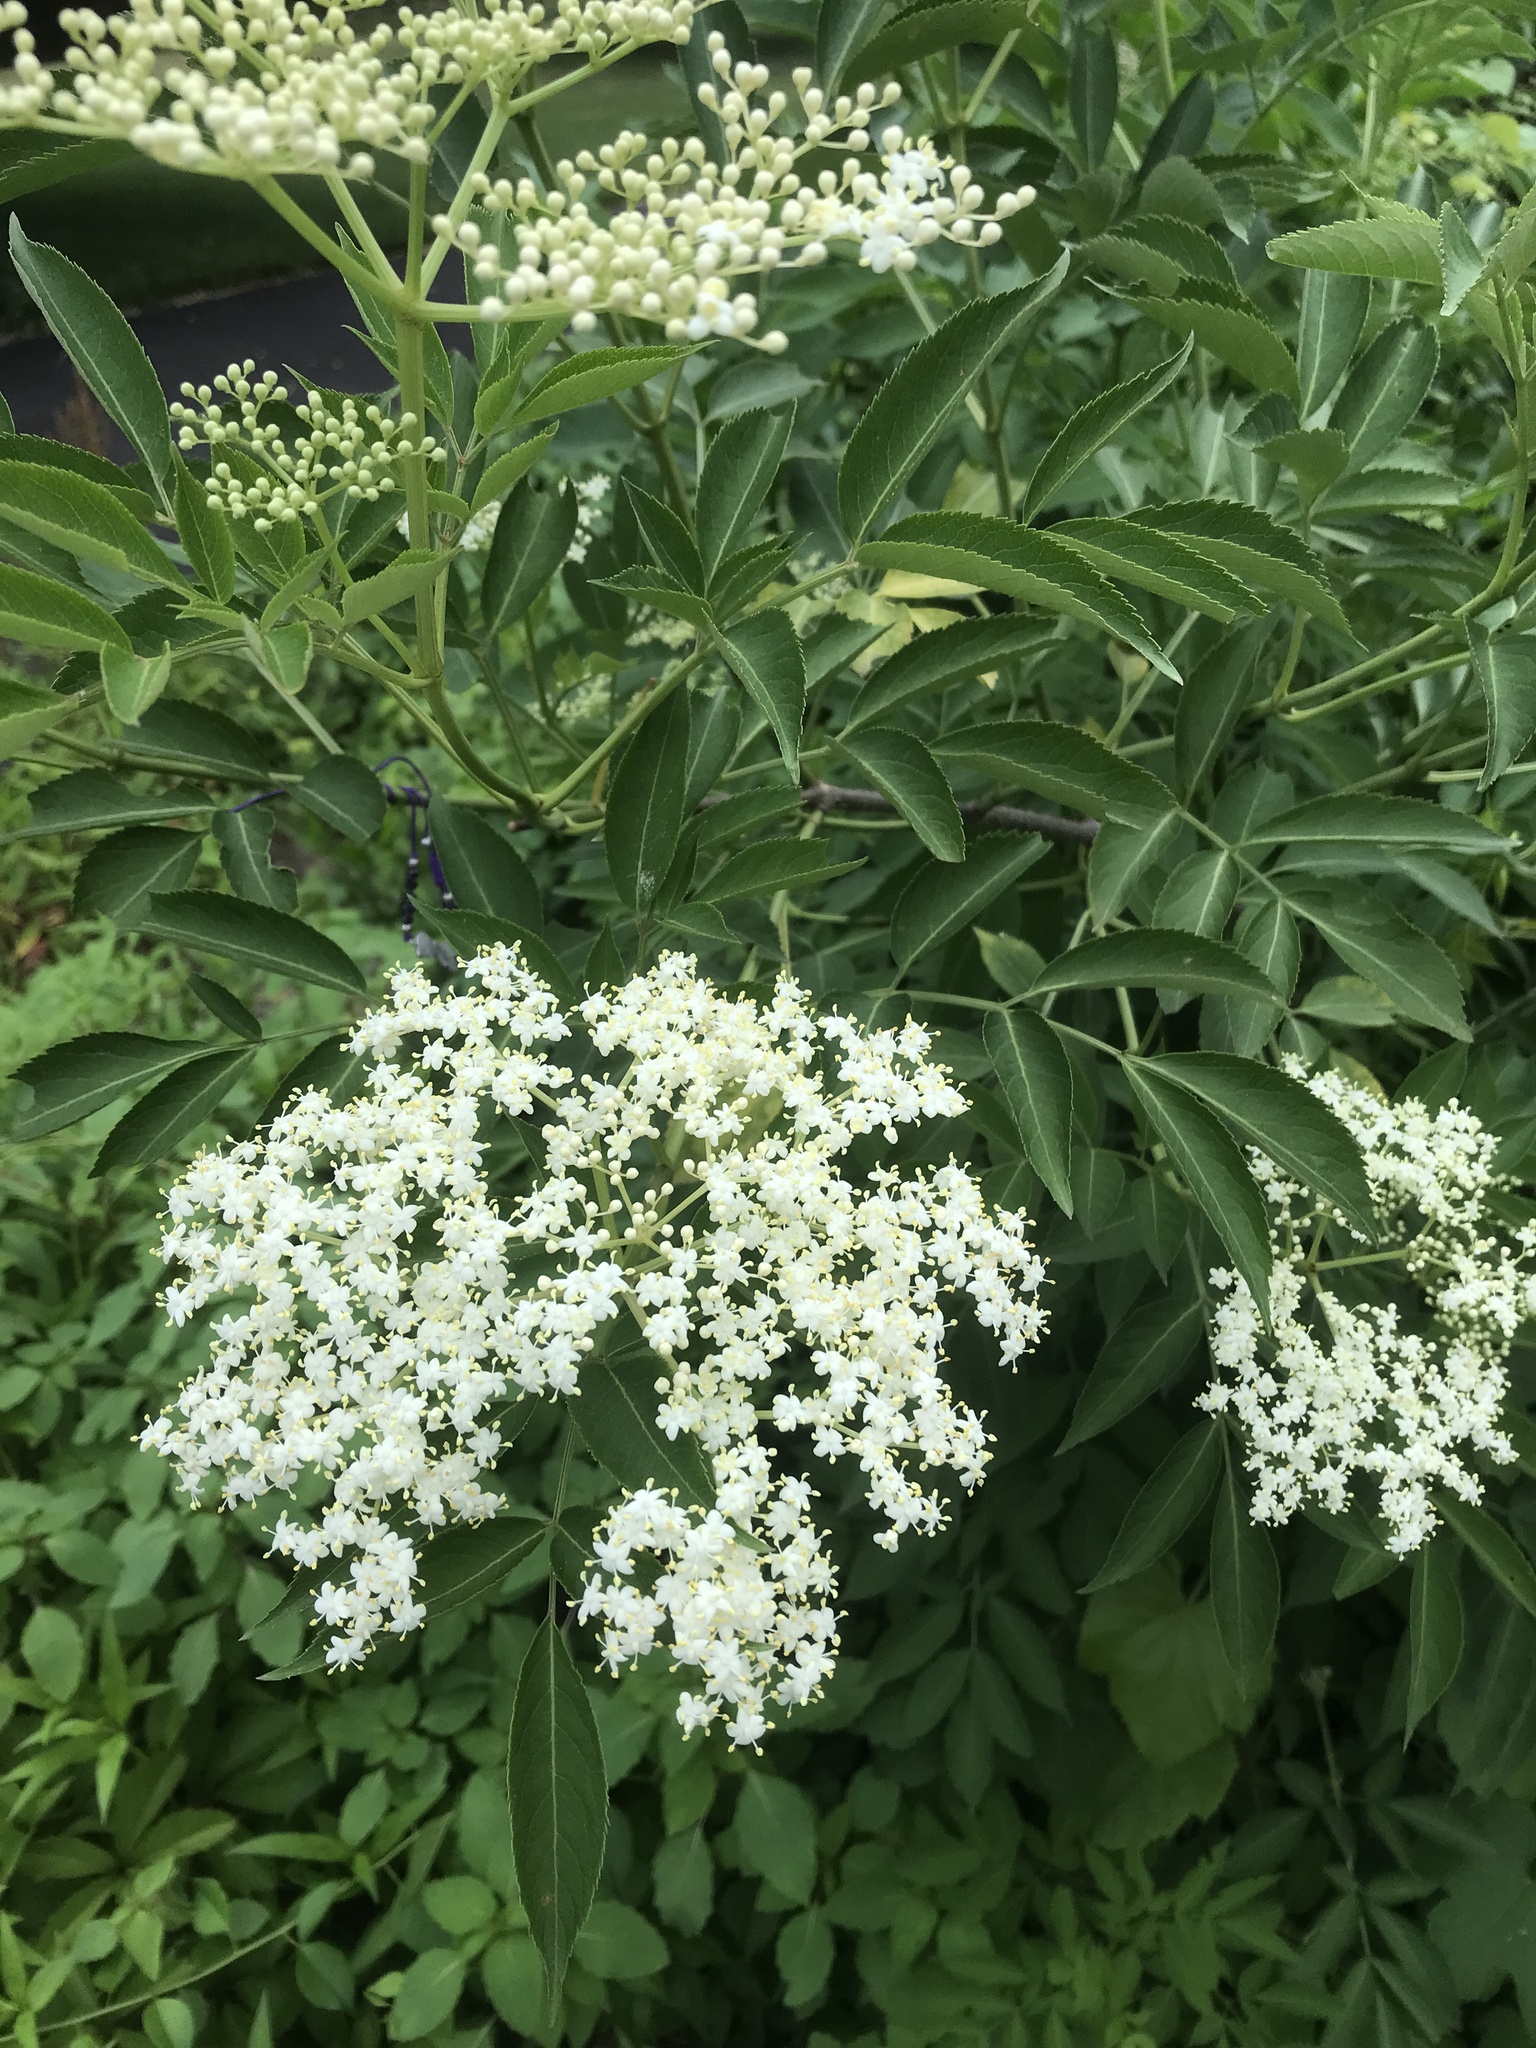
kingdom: Plantae
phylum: Tracheophyta
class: Magnoliopsida
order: Dipsacales
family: Viburnaceae
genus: Sambucus
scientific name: Sambucus canadensis
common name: American elder
